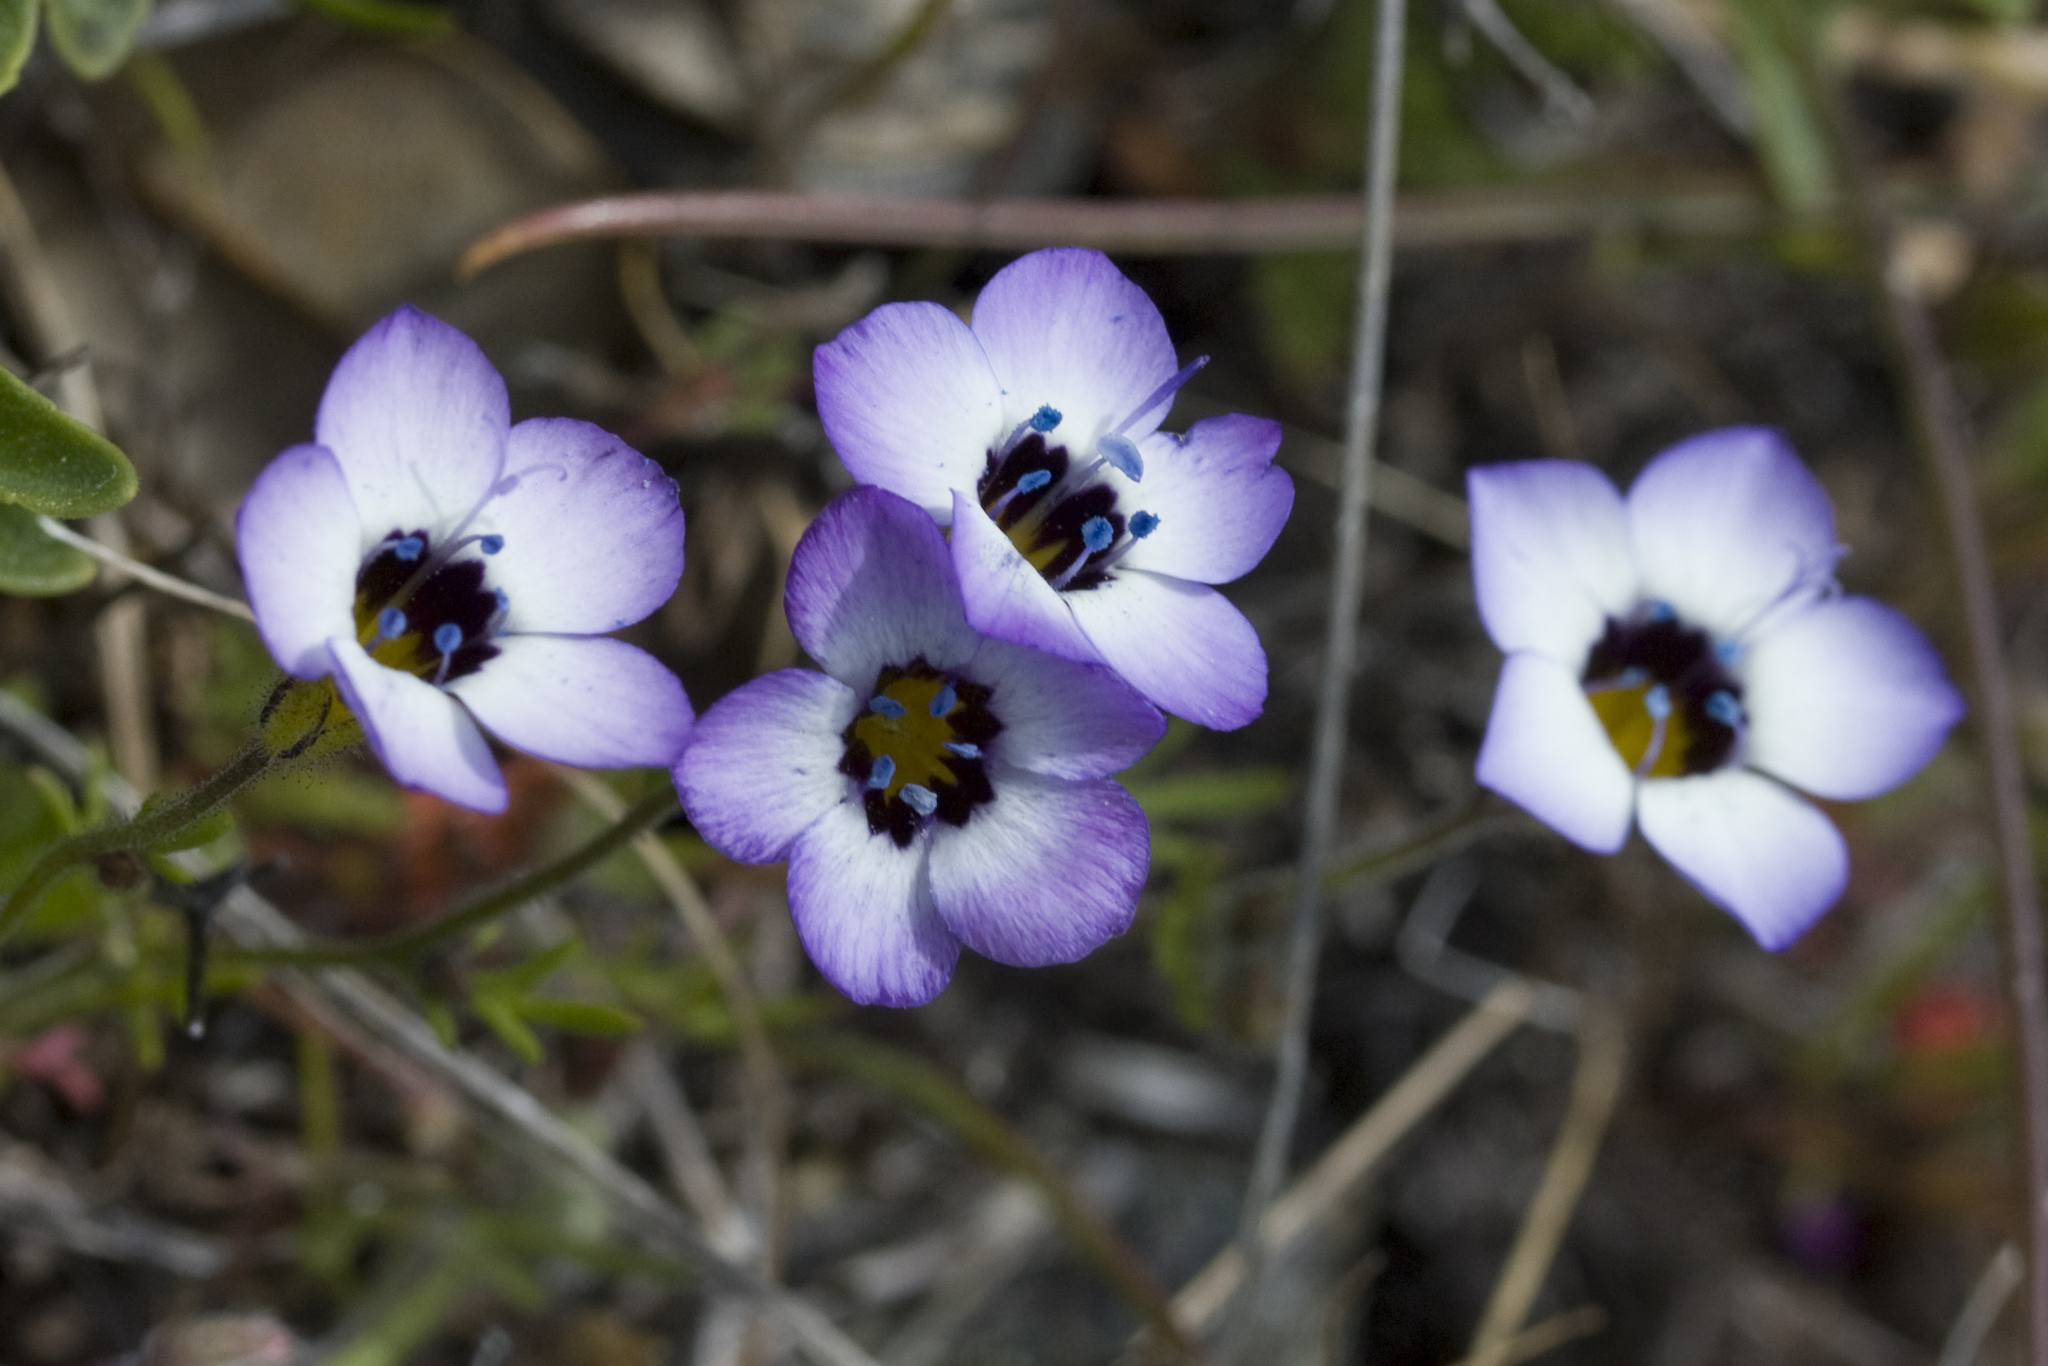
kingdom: Plantae
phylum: Tracheophyta
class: Magnoliopsida
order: Ericales
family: Polemoniaceae
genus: Gilia
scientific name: Gilia tricolor
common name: Bird's-eyes
